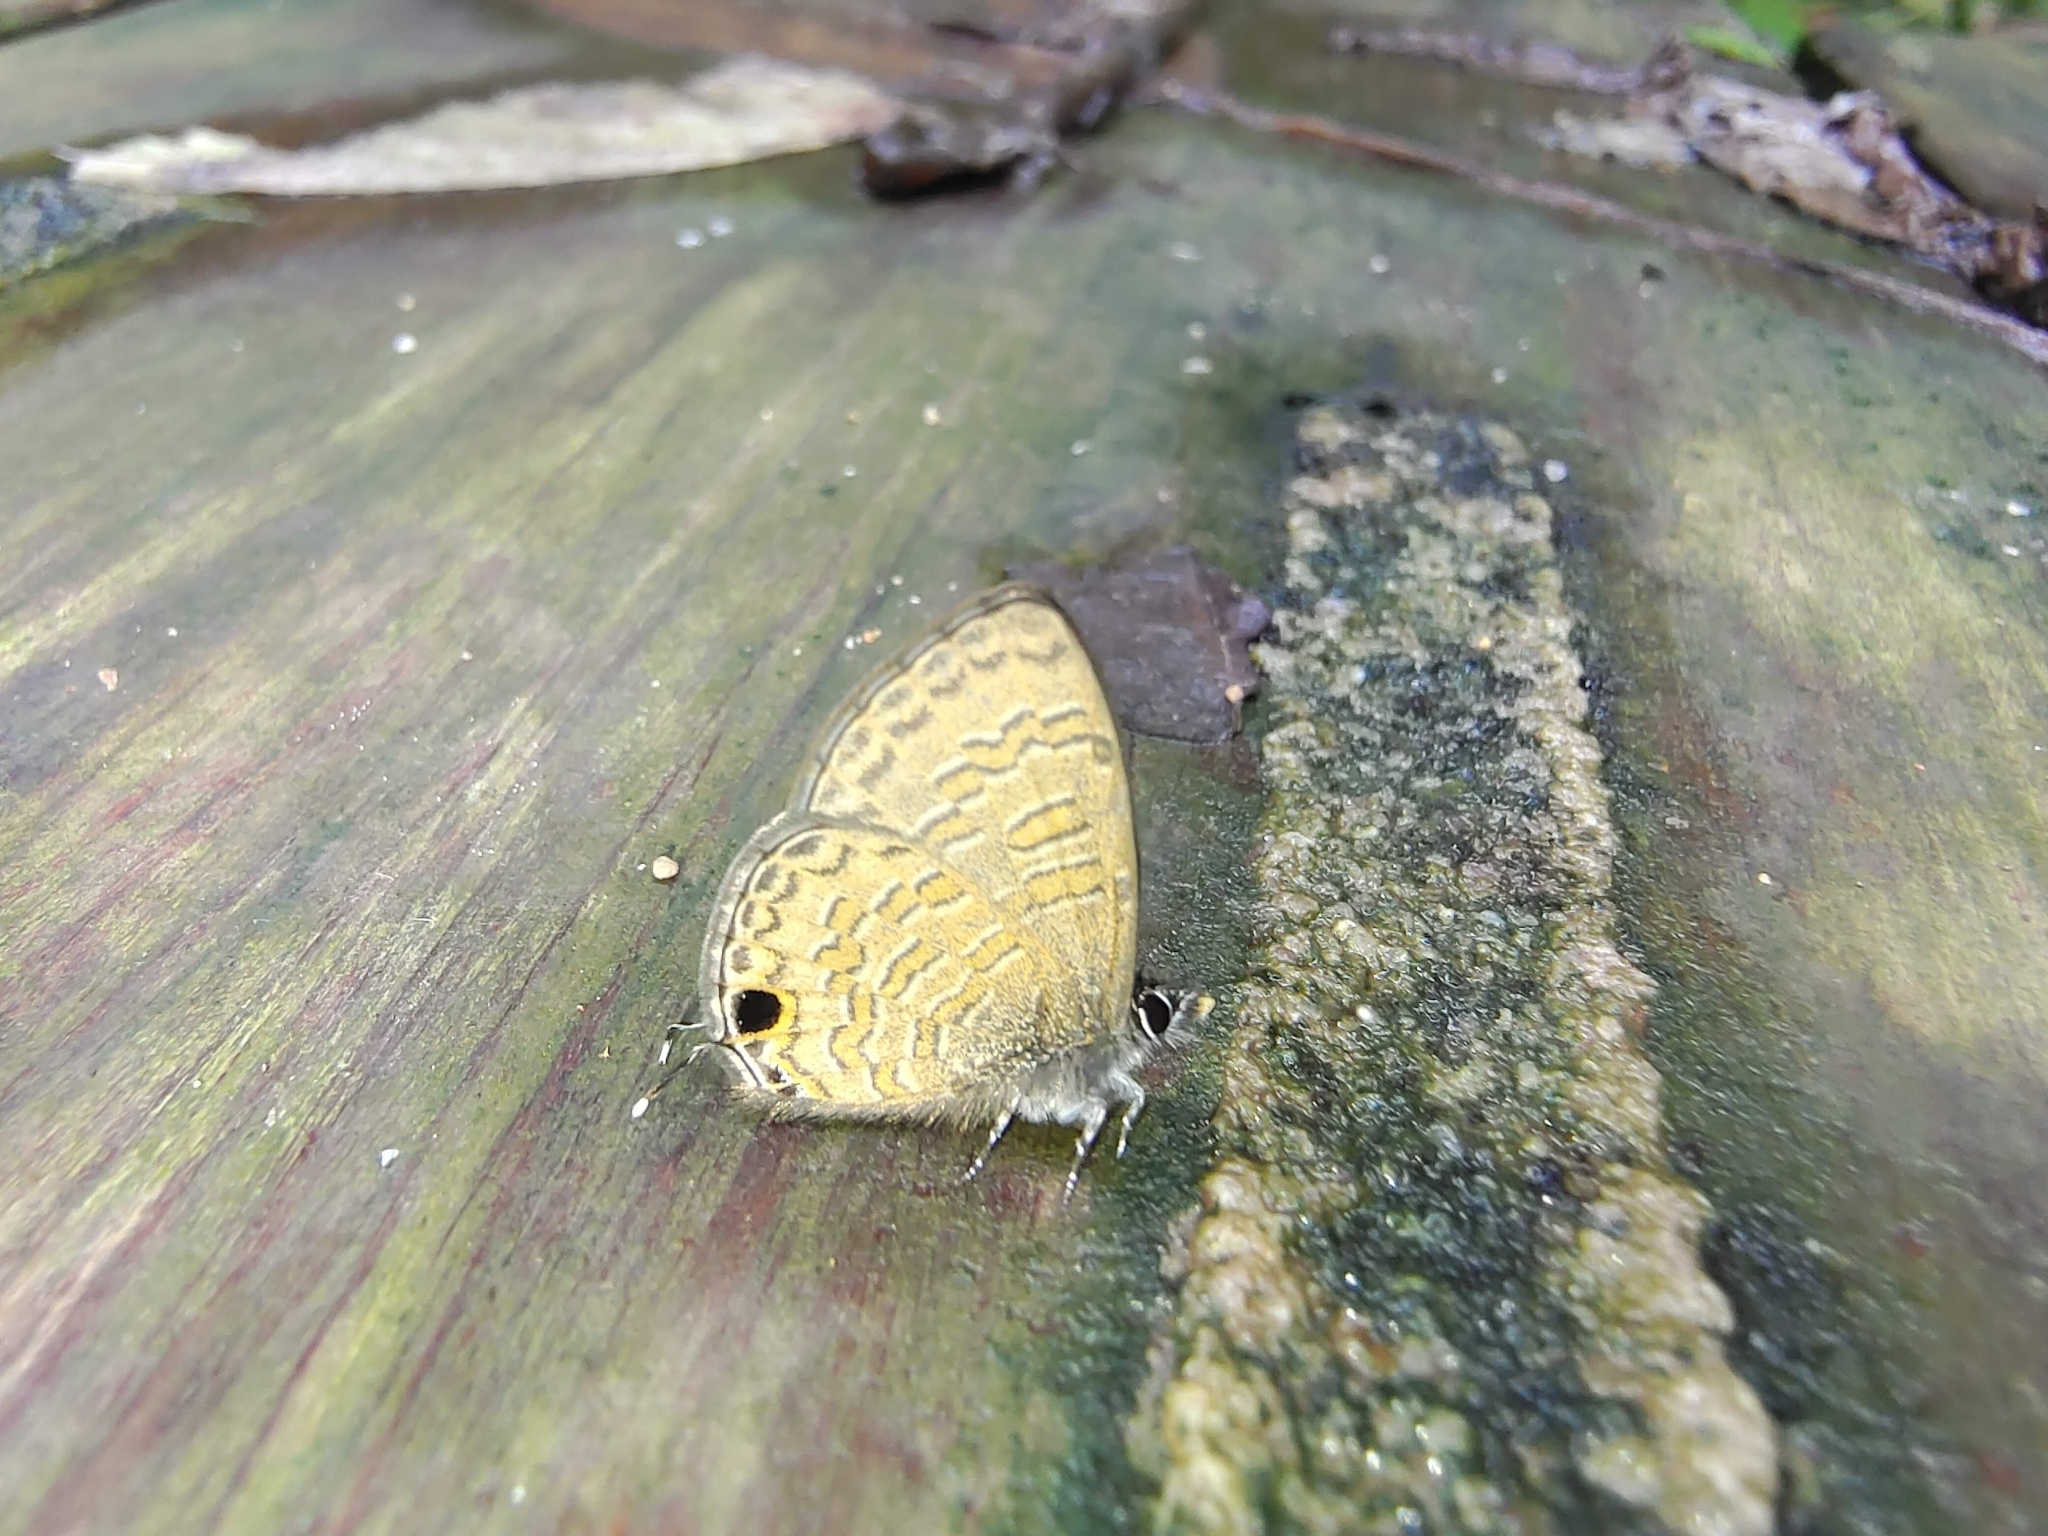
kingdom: Animalia
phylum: Arthropoda
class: Insecta
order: Lepidoptera
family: Lycaenidae
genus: Prosotas
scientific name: Prosotas nora
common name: Common line blue
